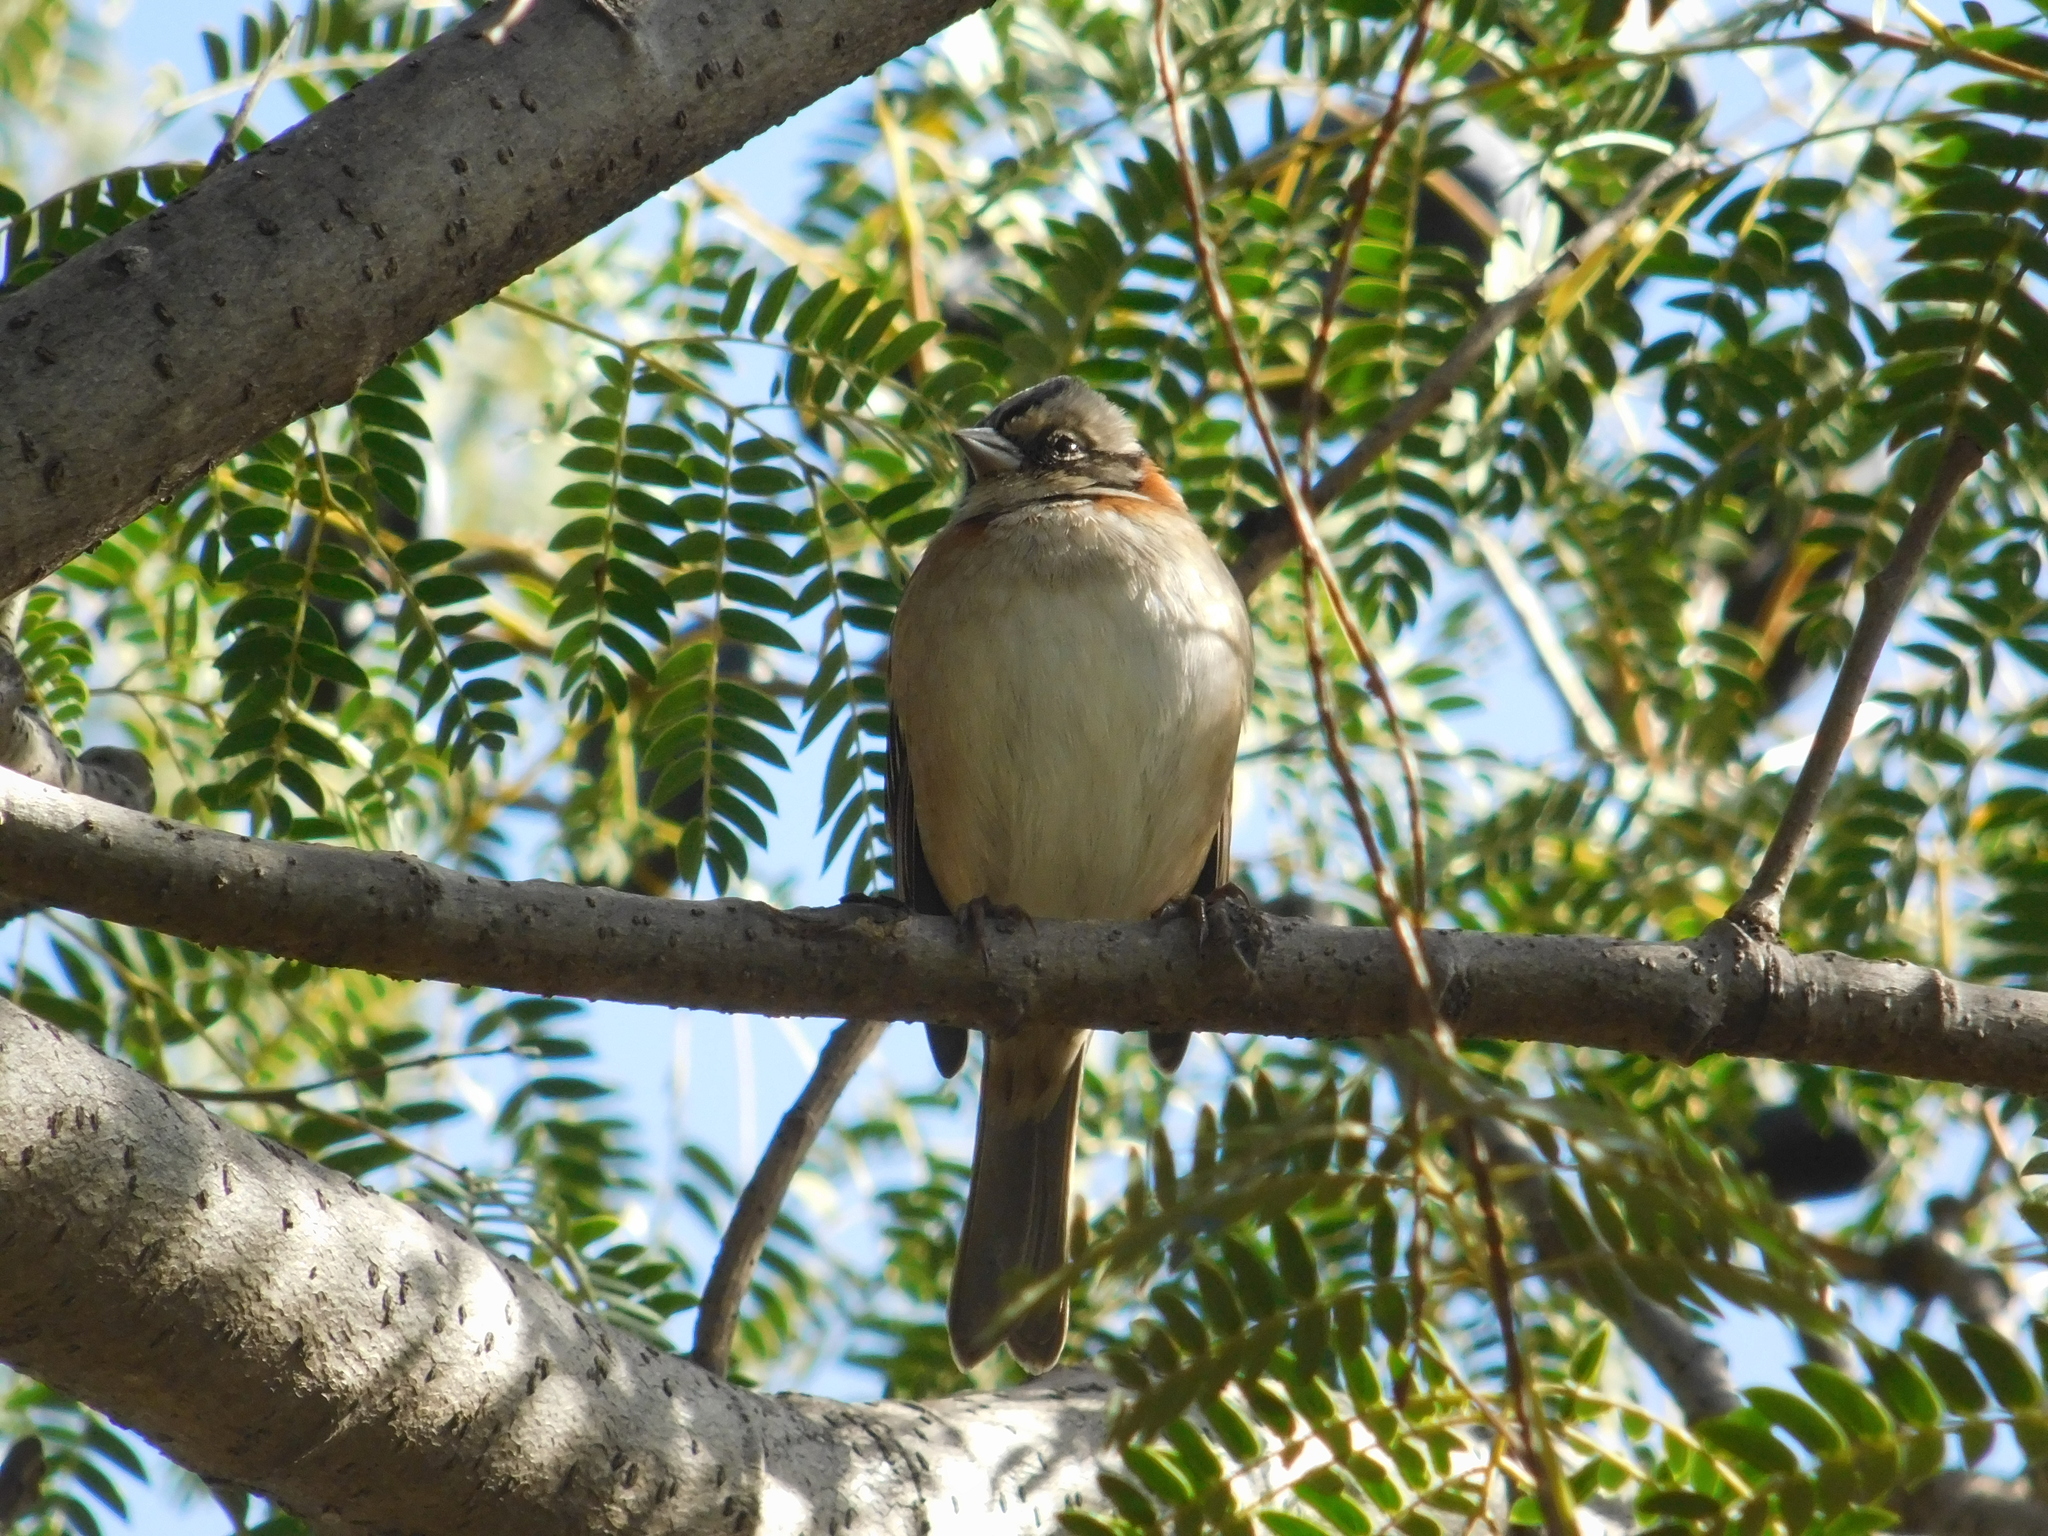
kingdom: Animalia
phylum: Chordata
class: Aves
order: Passeriformes
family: Passerellidae
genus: Zonotrichia
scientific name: Zonotrichia capensis
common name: Rufous-collared sparrow
